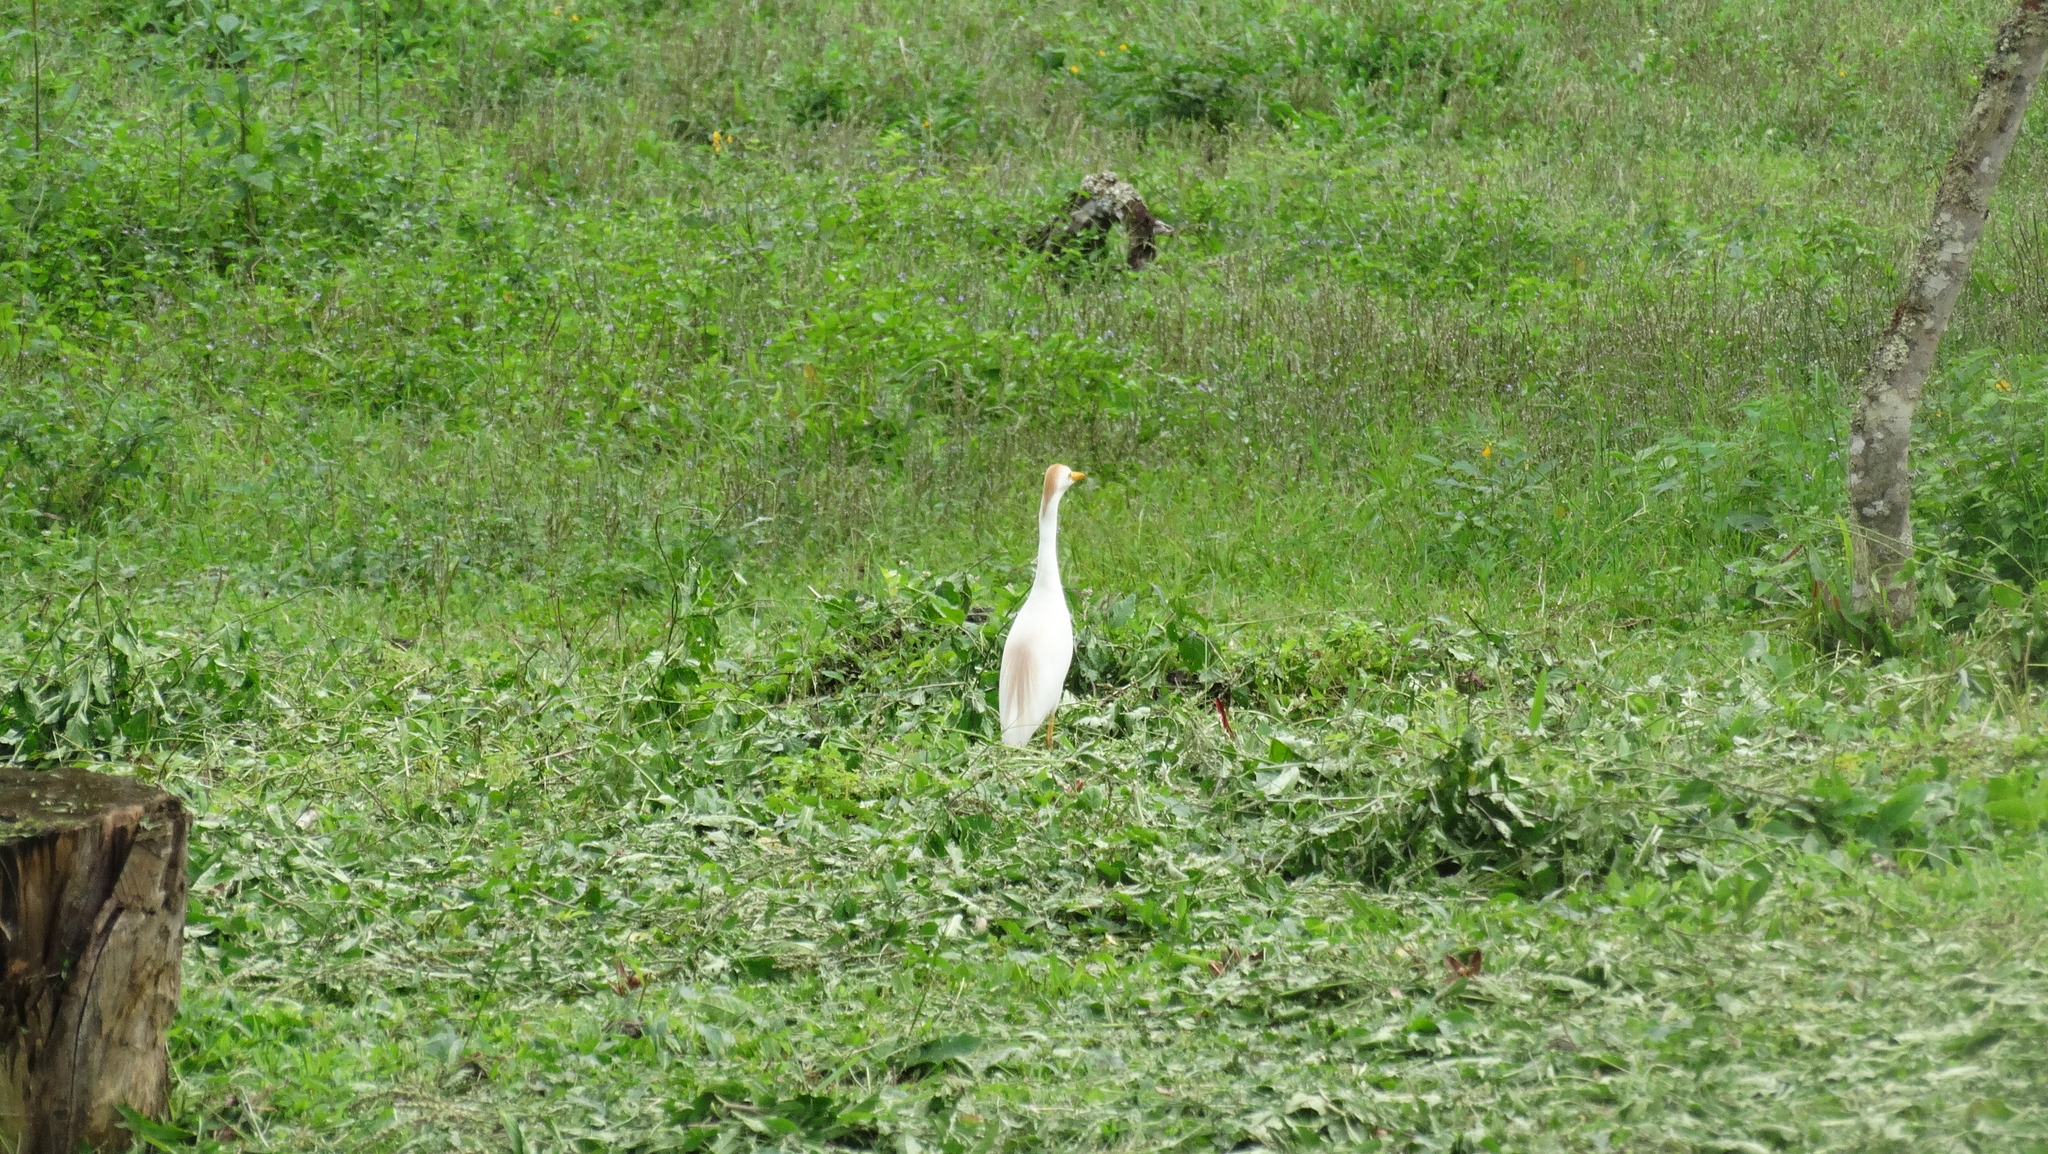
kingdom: Animalia
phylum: Chordata
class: Aves
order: Pelecaniformes
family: Ardeidae
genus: Bubulcus
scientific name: Bubulcus ibis
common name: Cattle egret
